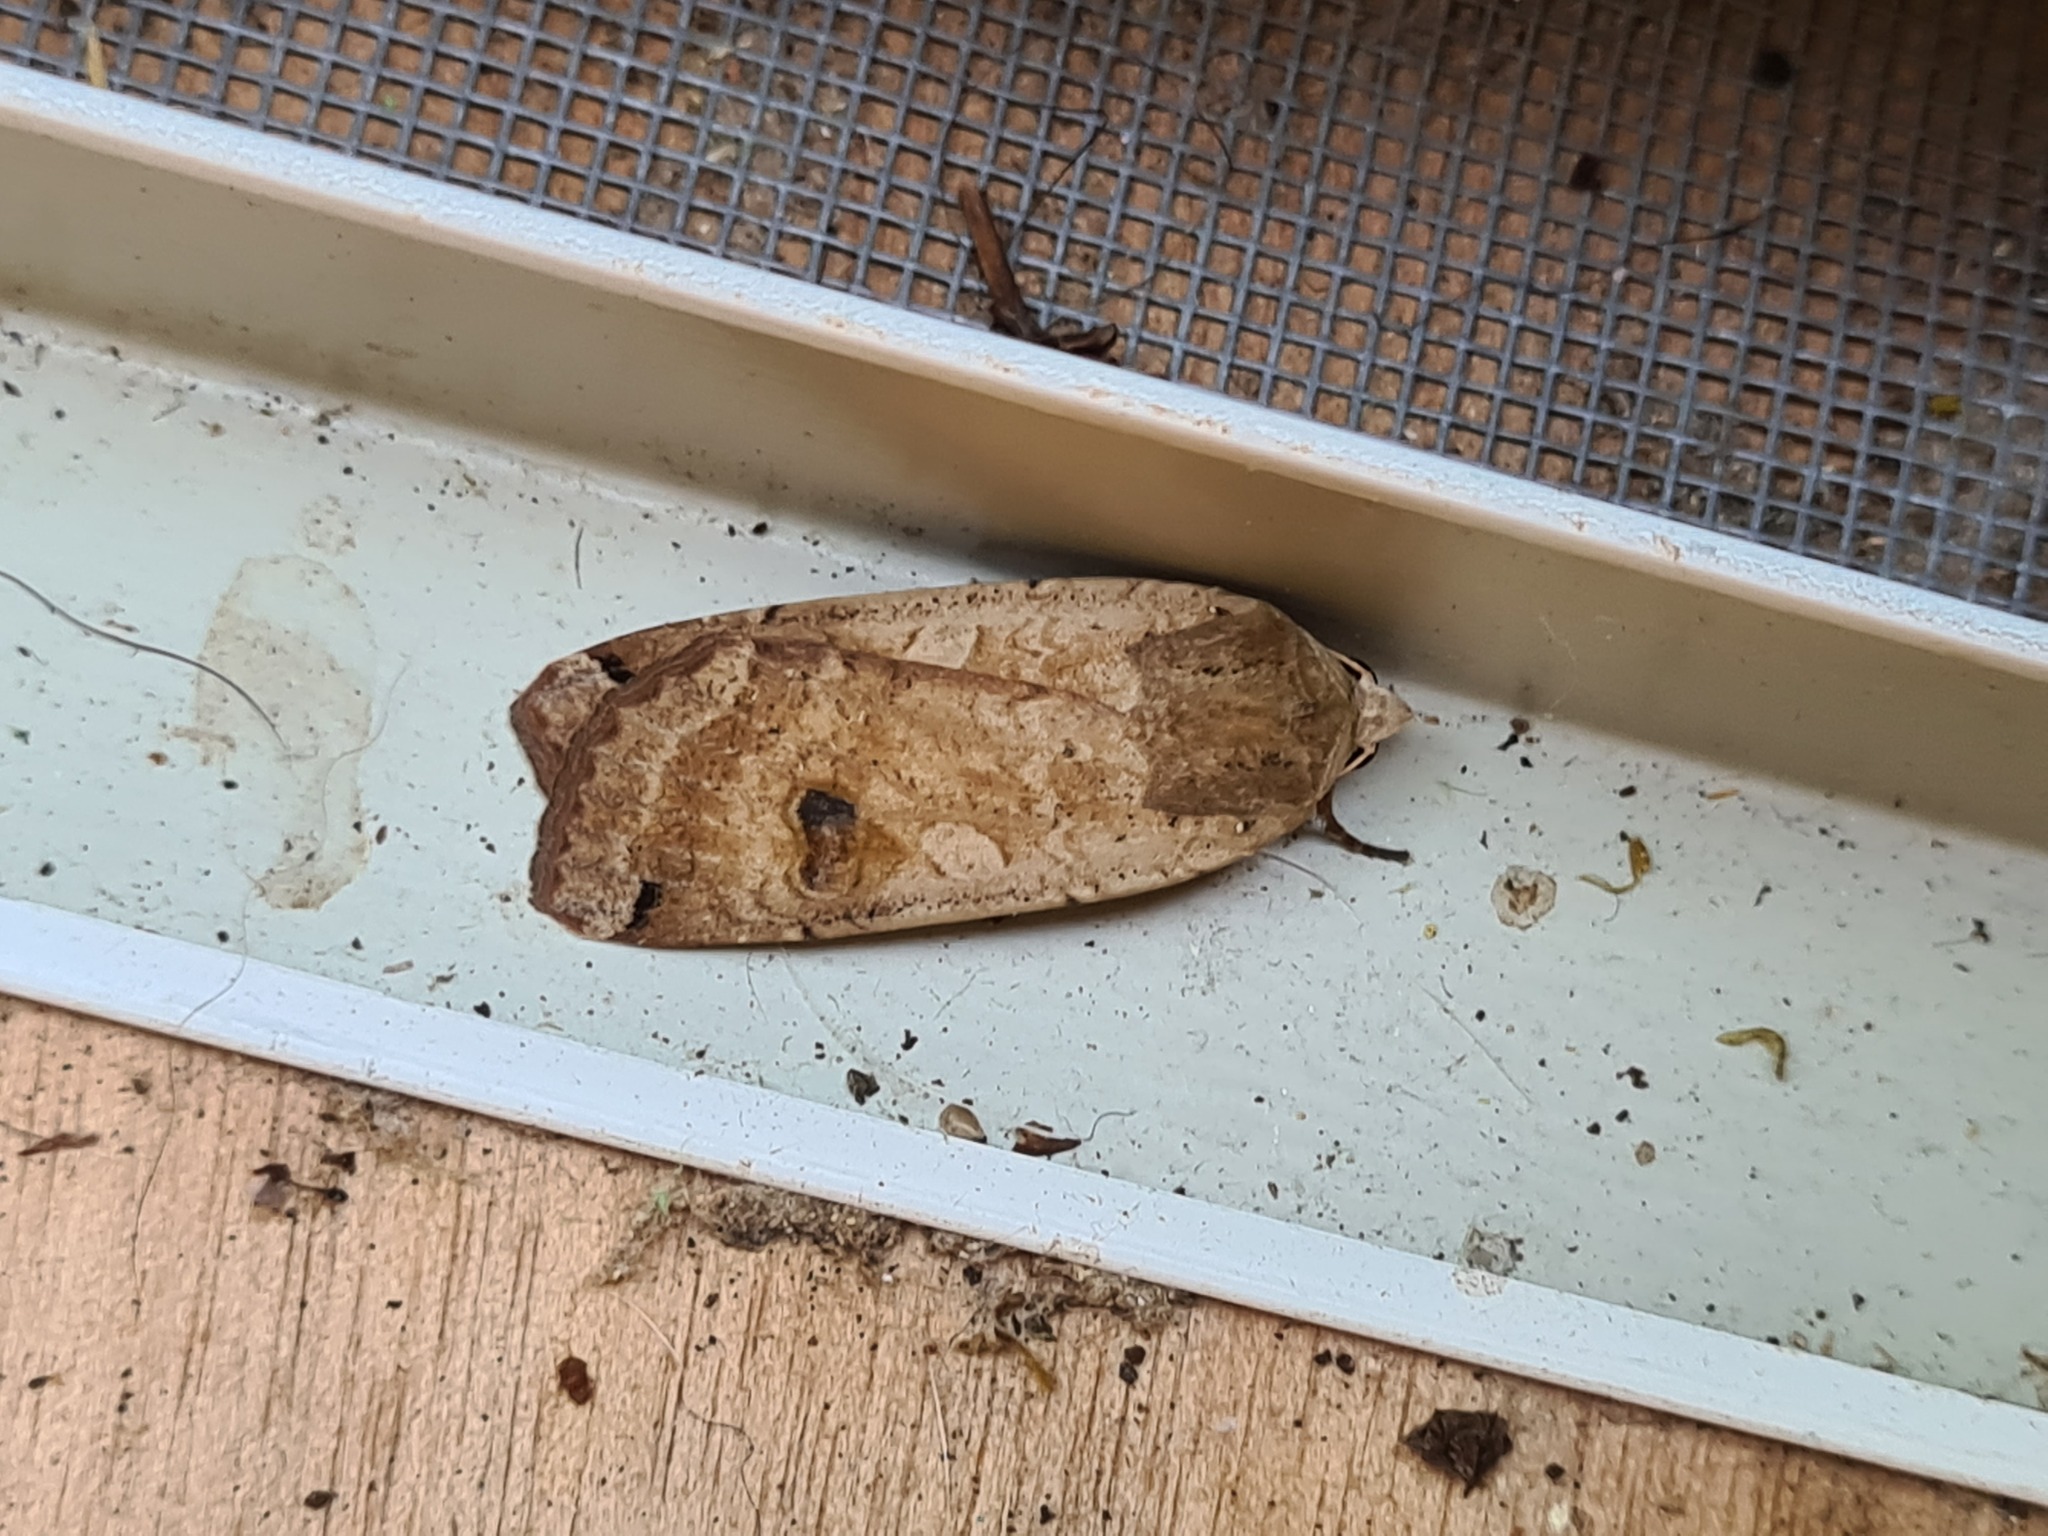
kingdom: Animalia
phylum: Arthropoda
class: Insecta
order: Lepidoptera
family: Noctuidae
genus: Noctua
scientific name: Noctua pronuba
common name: Large yellow underwing
